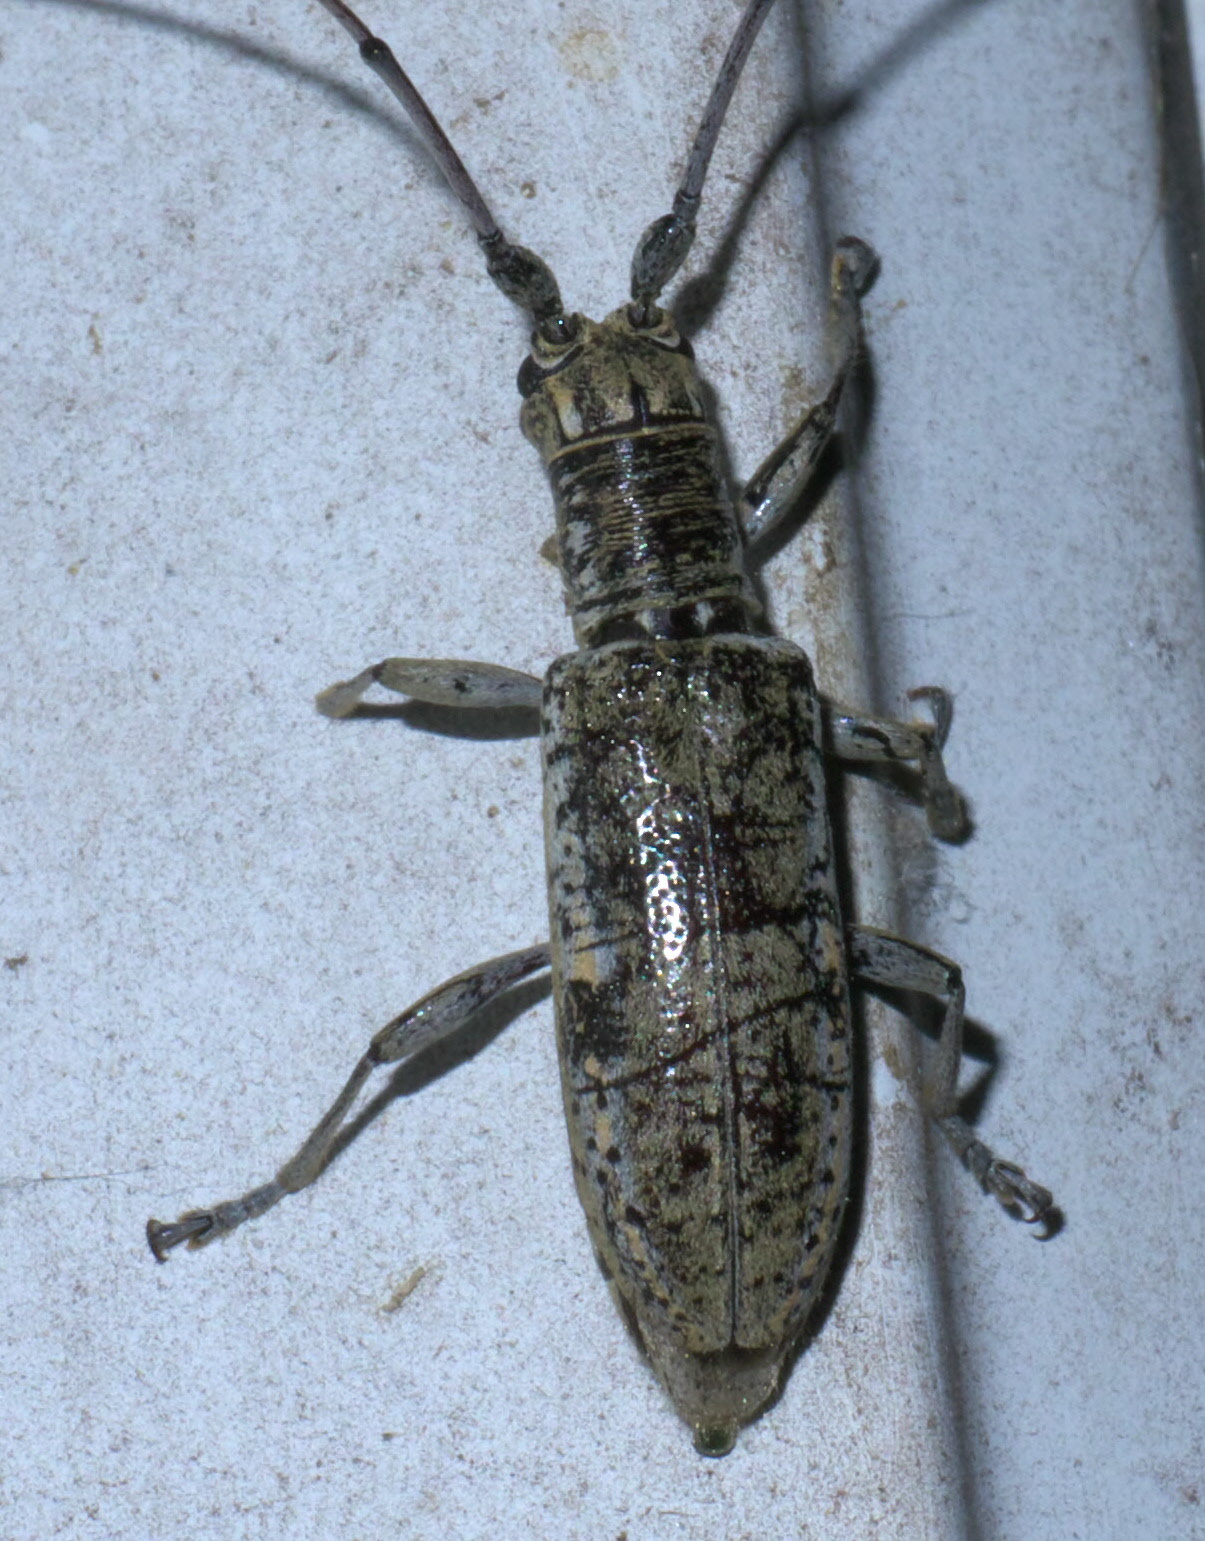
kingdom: Animalia
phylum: Arthropoda
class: Insecta
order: Coleoptera
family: Cerambycidae
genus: Dorcaschema
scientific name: Dorcaschema wildii
